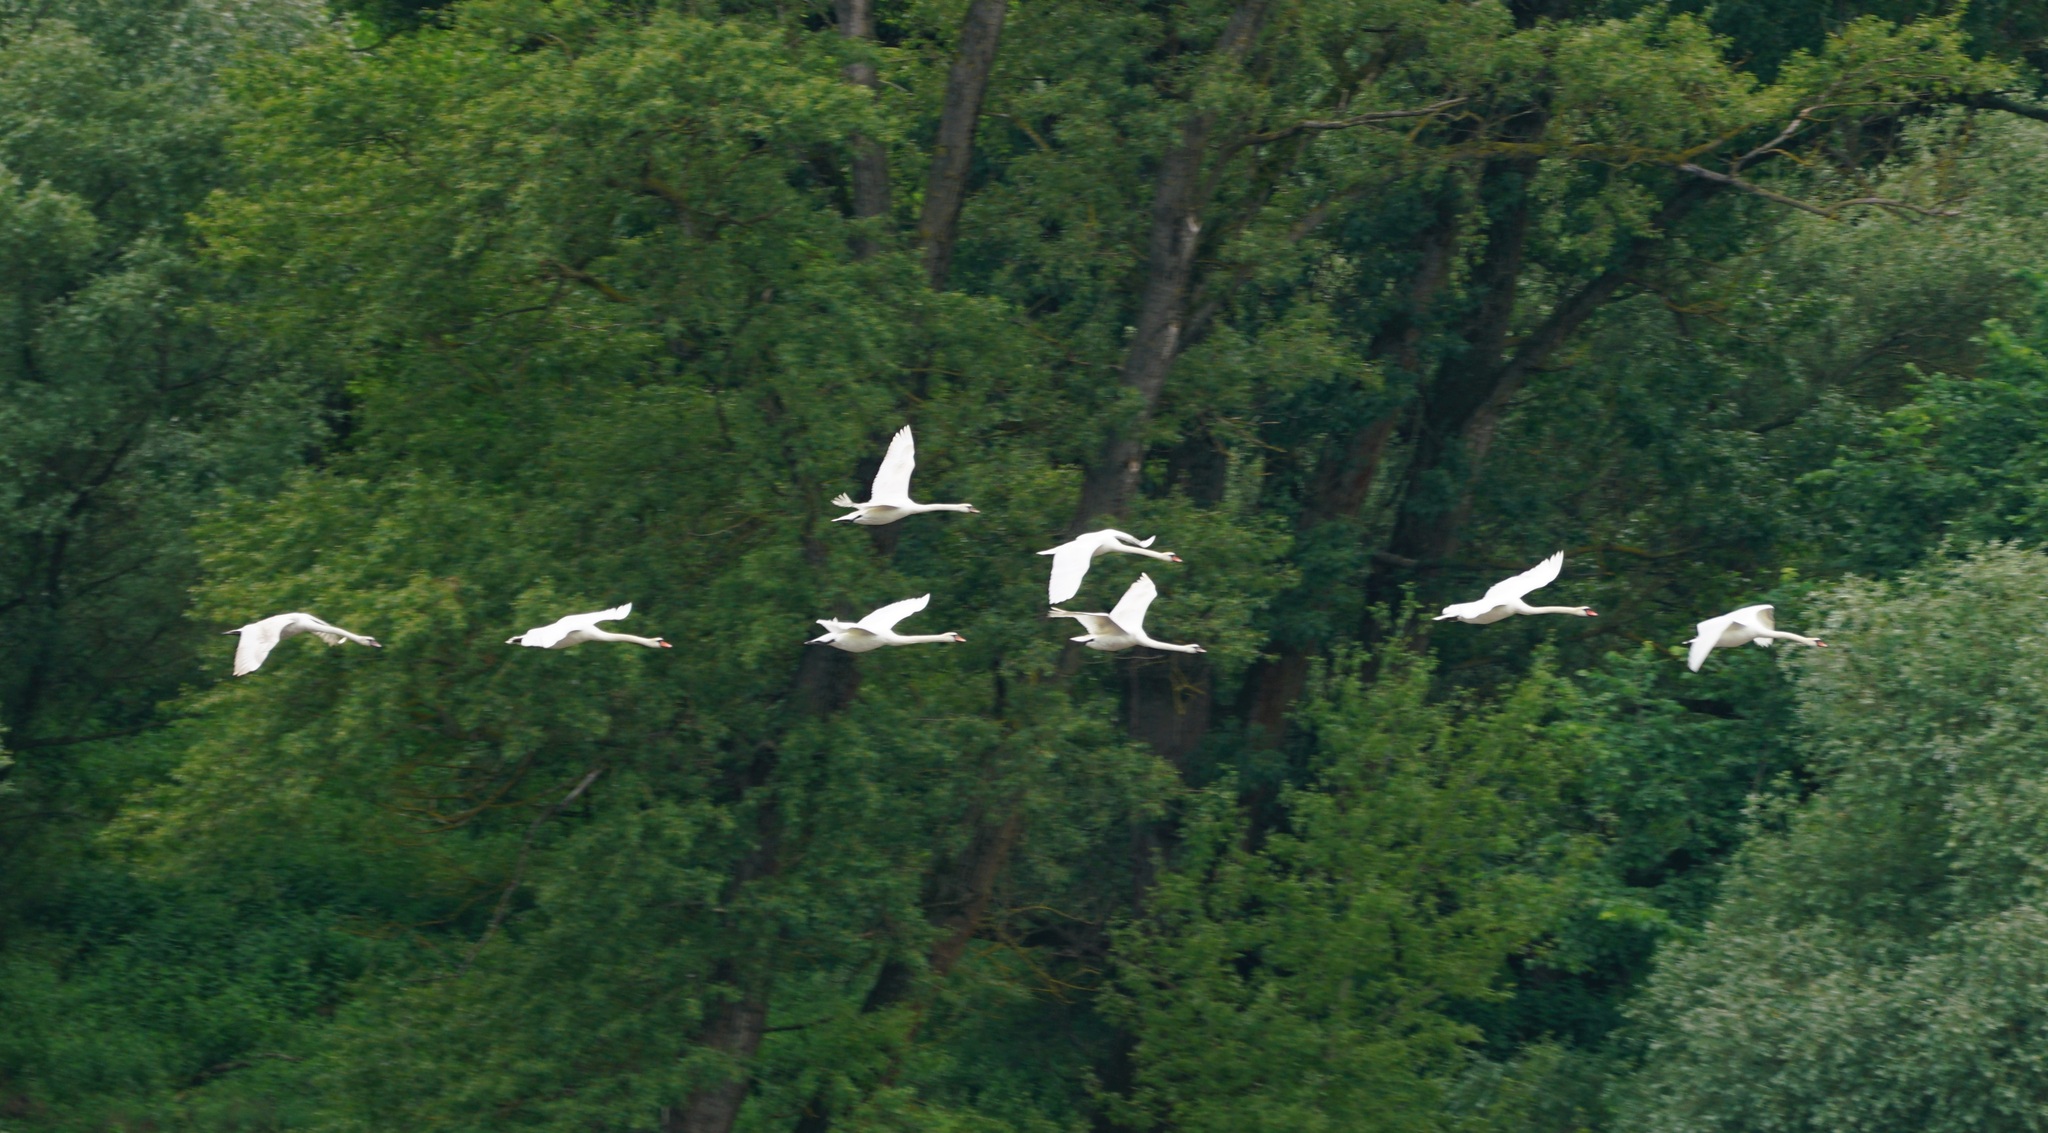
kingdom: Animalia
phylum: Chordata
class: Aves
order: Anseriformes
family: Anatidae
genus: Cygnus
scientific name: Cygnus olor
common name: Mute swan
